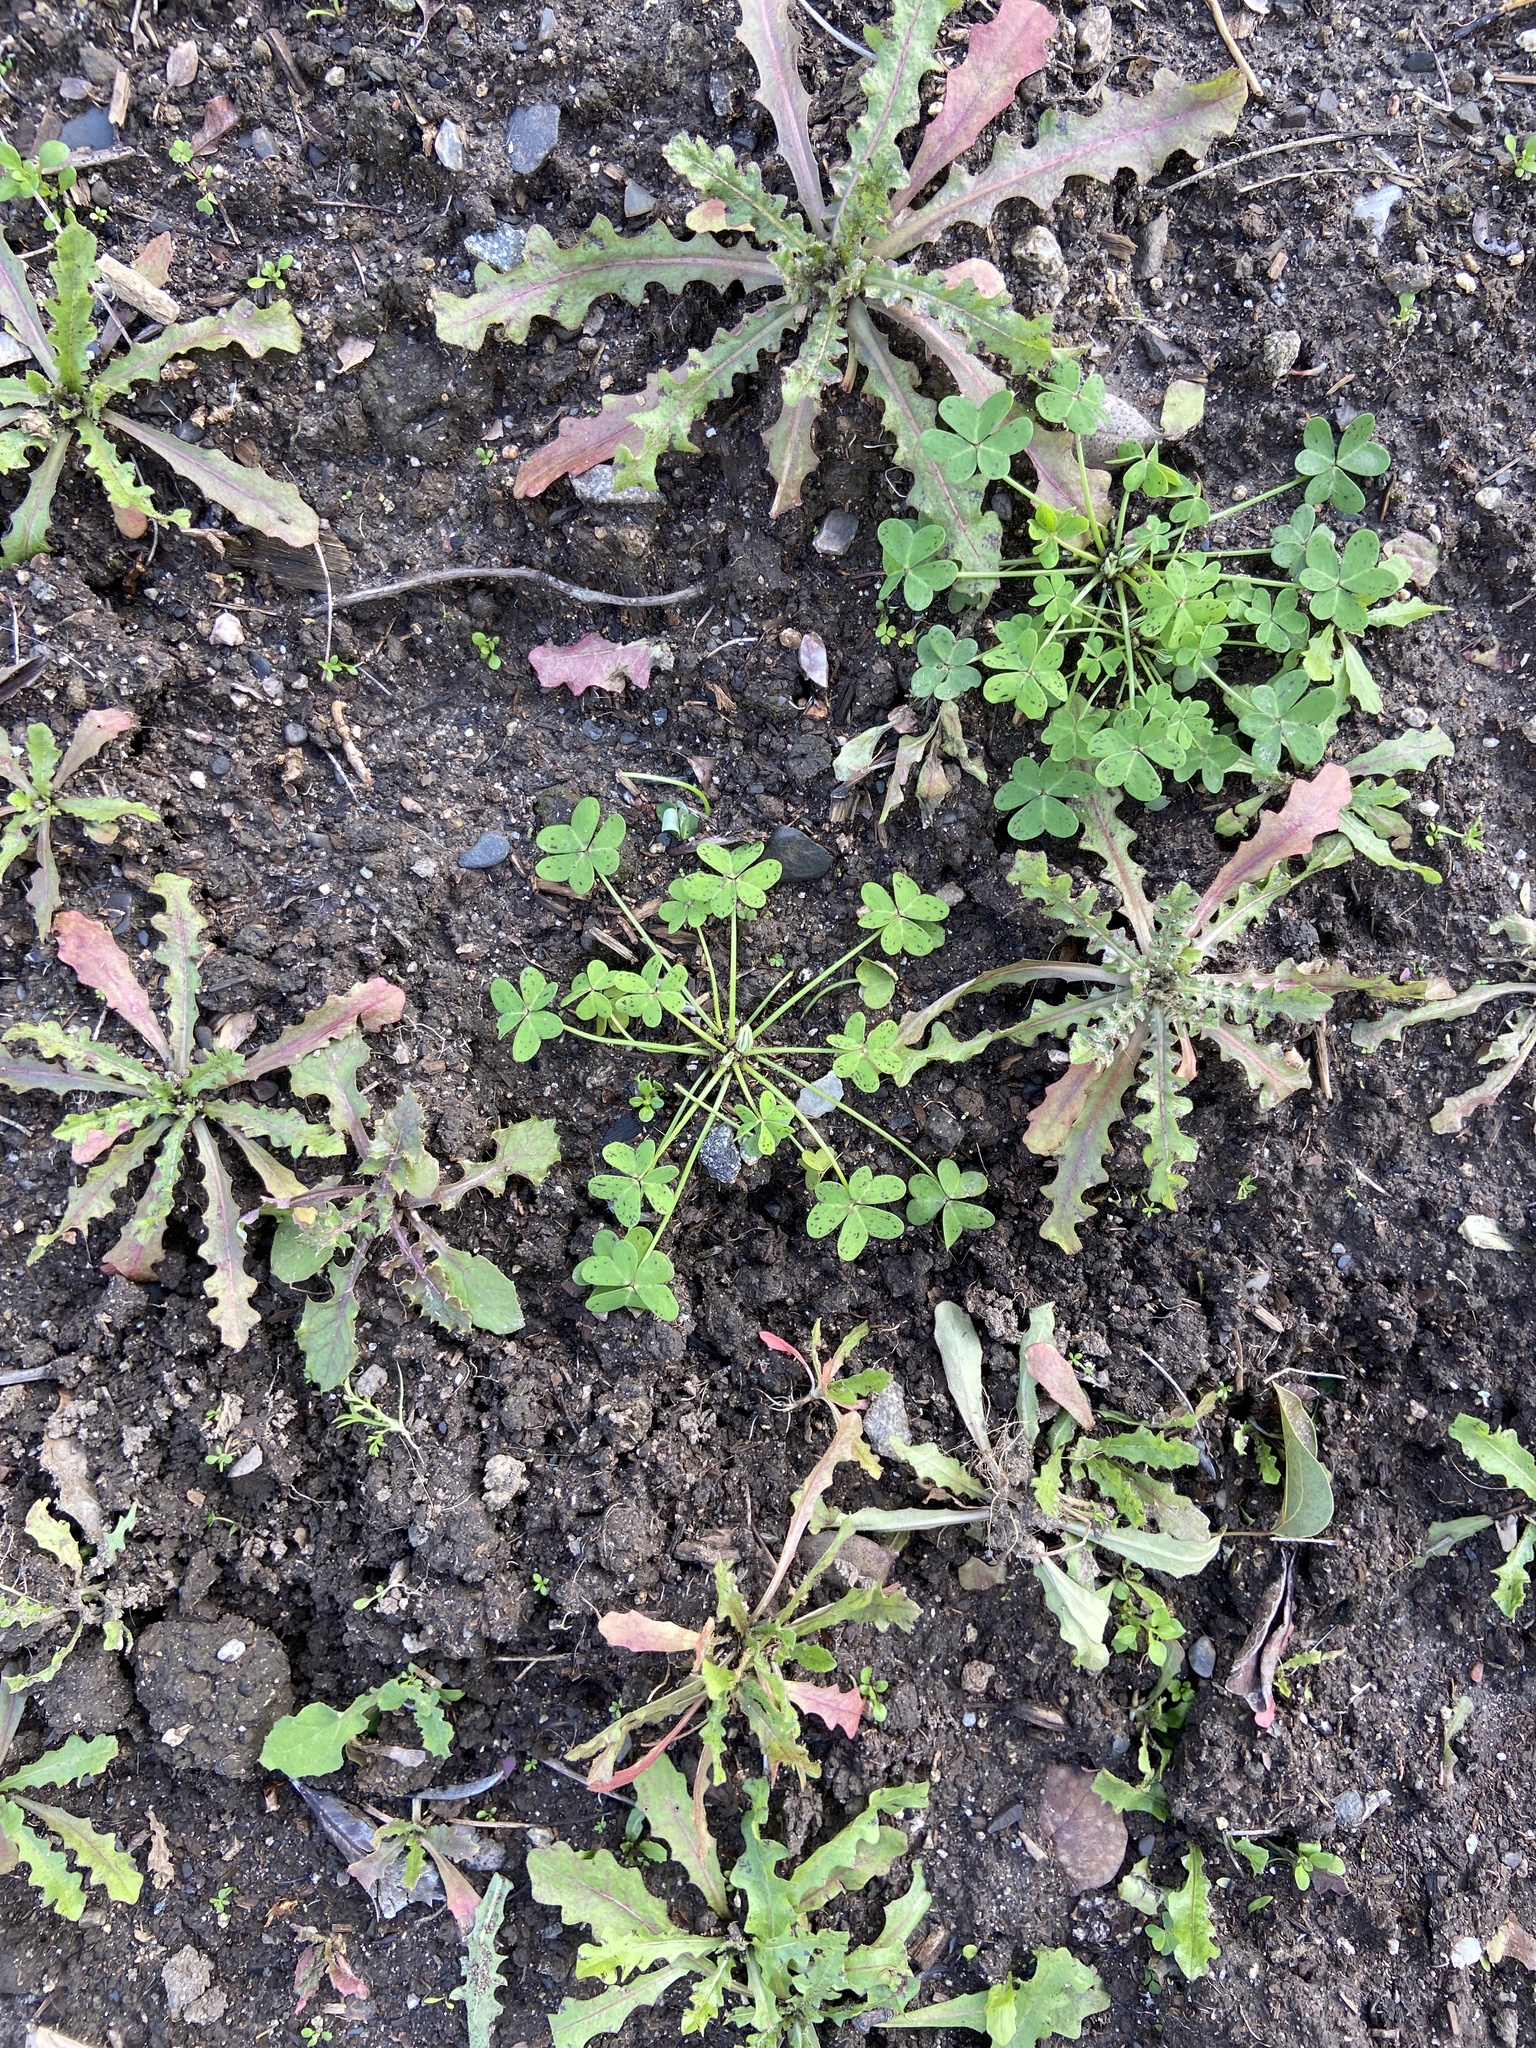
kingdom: Plantae
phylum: Tracheophyta
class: Magnoliopsida
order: Oxalidales
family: Oxalidaceae
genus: Oxalis
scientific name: Oxalis pes-caprae
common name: Bermuda-buttercup
